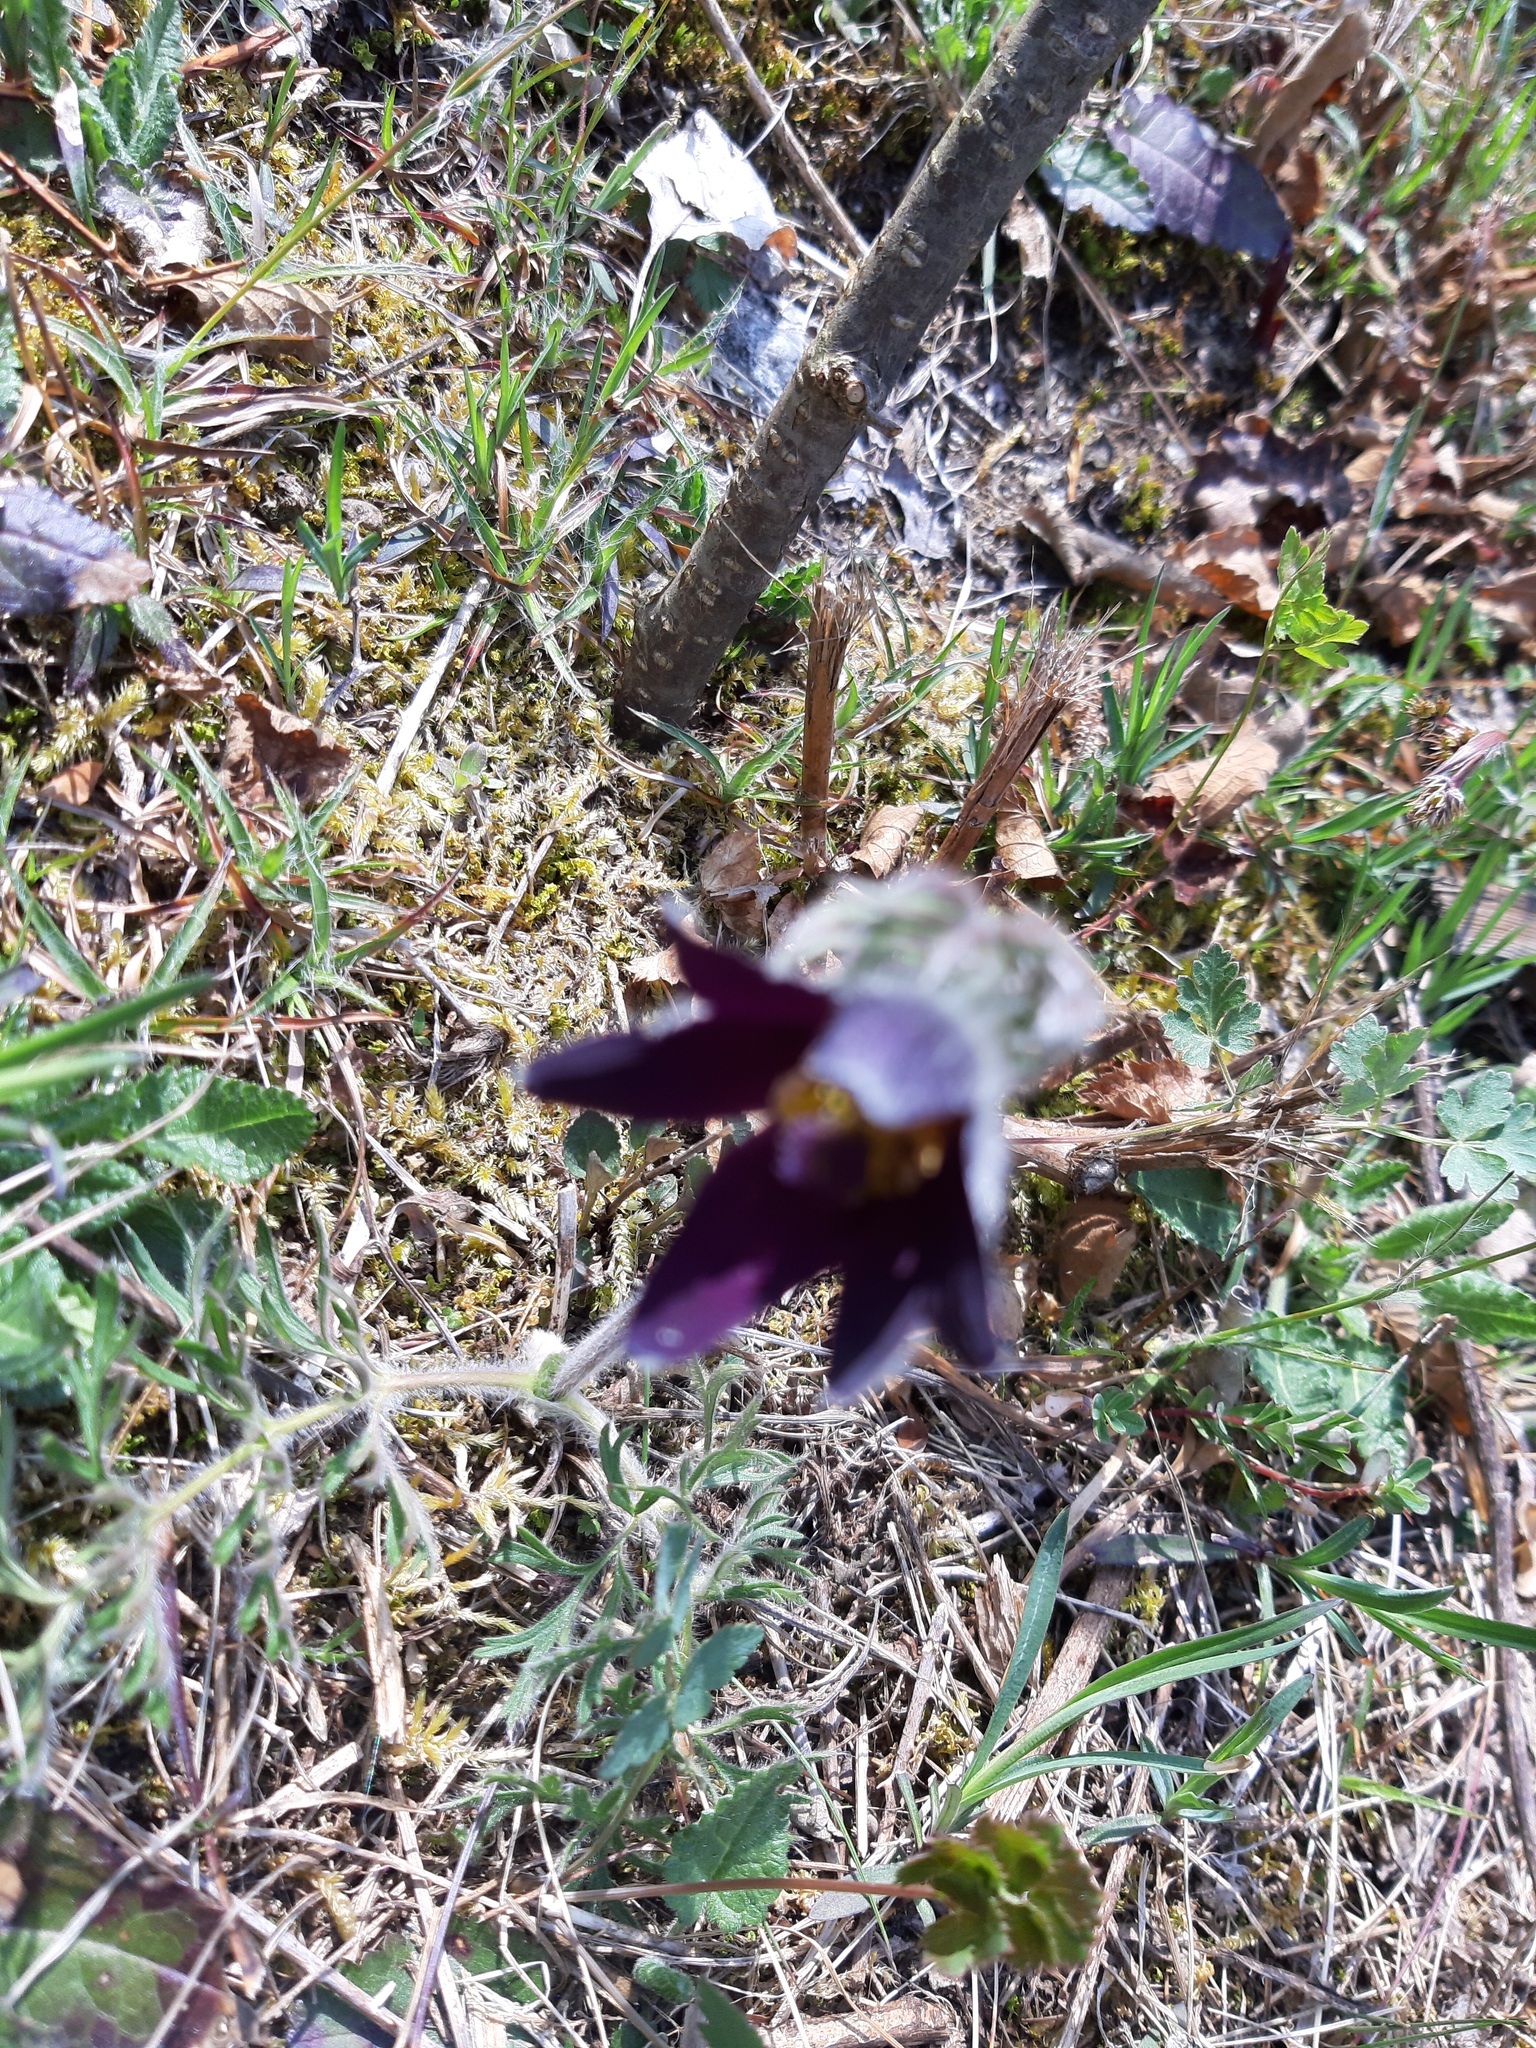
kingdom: Plantae
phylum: Tracheophyta
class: Magnoliopsida
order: Ranunculales
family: Ranunculaceae
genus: Pulsatilla
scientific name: Pulsatilla montana
